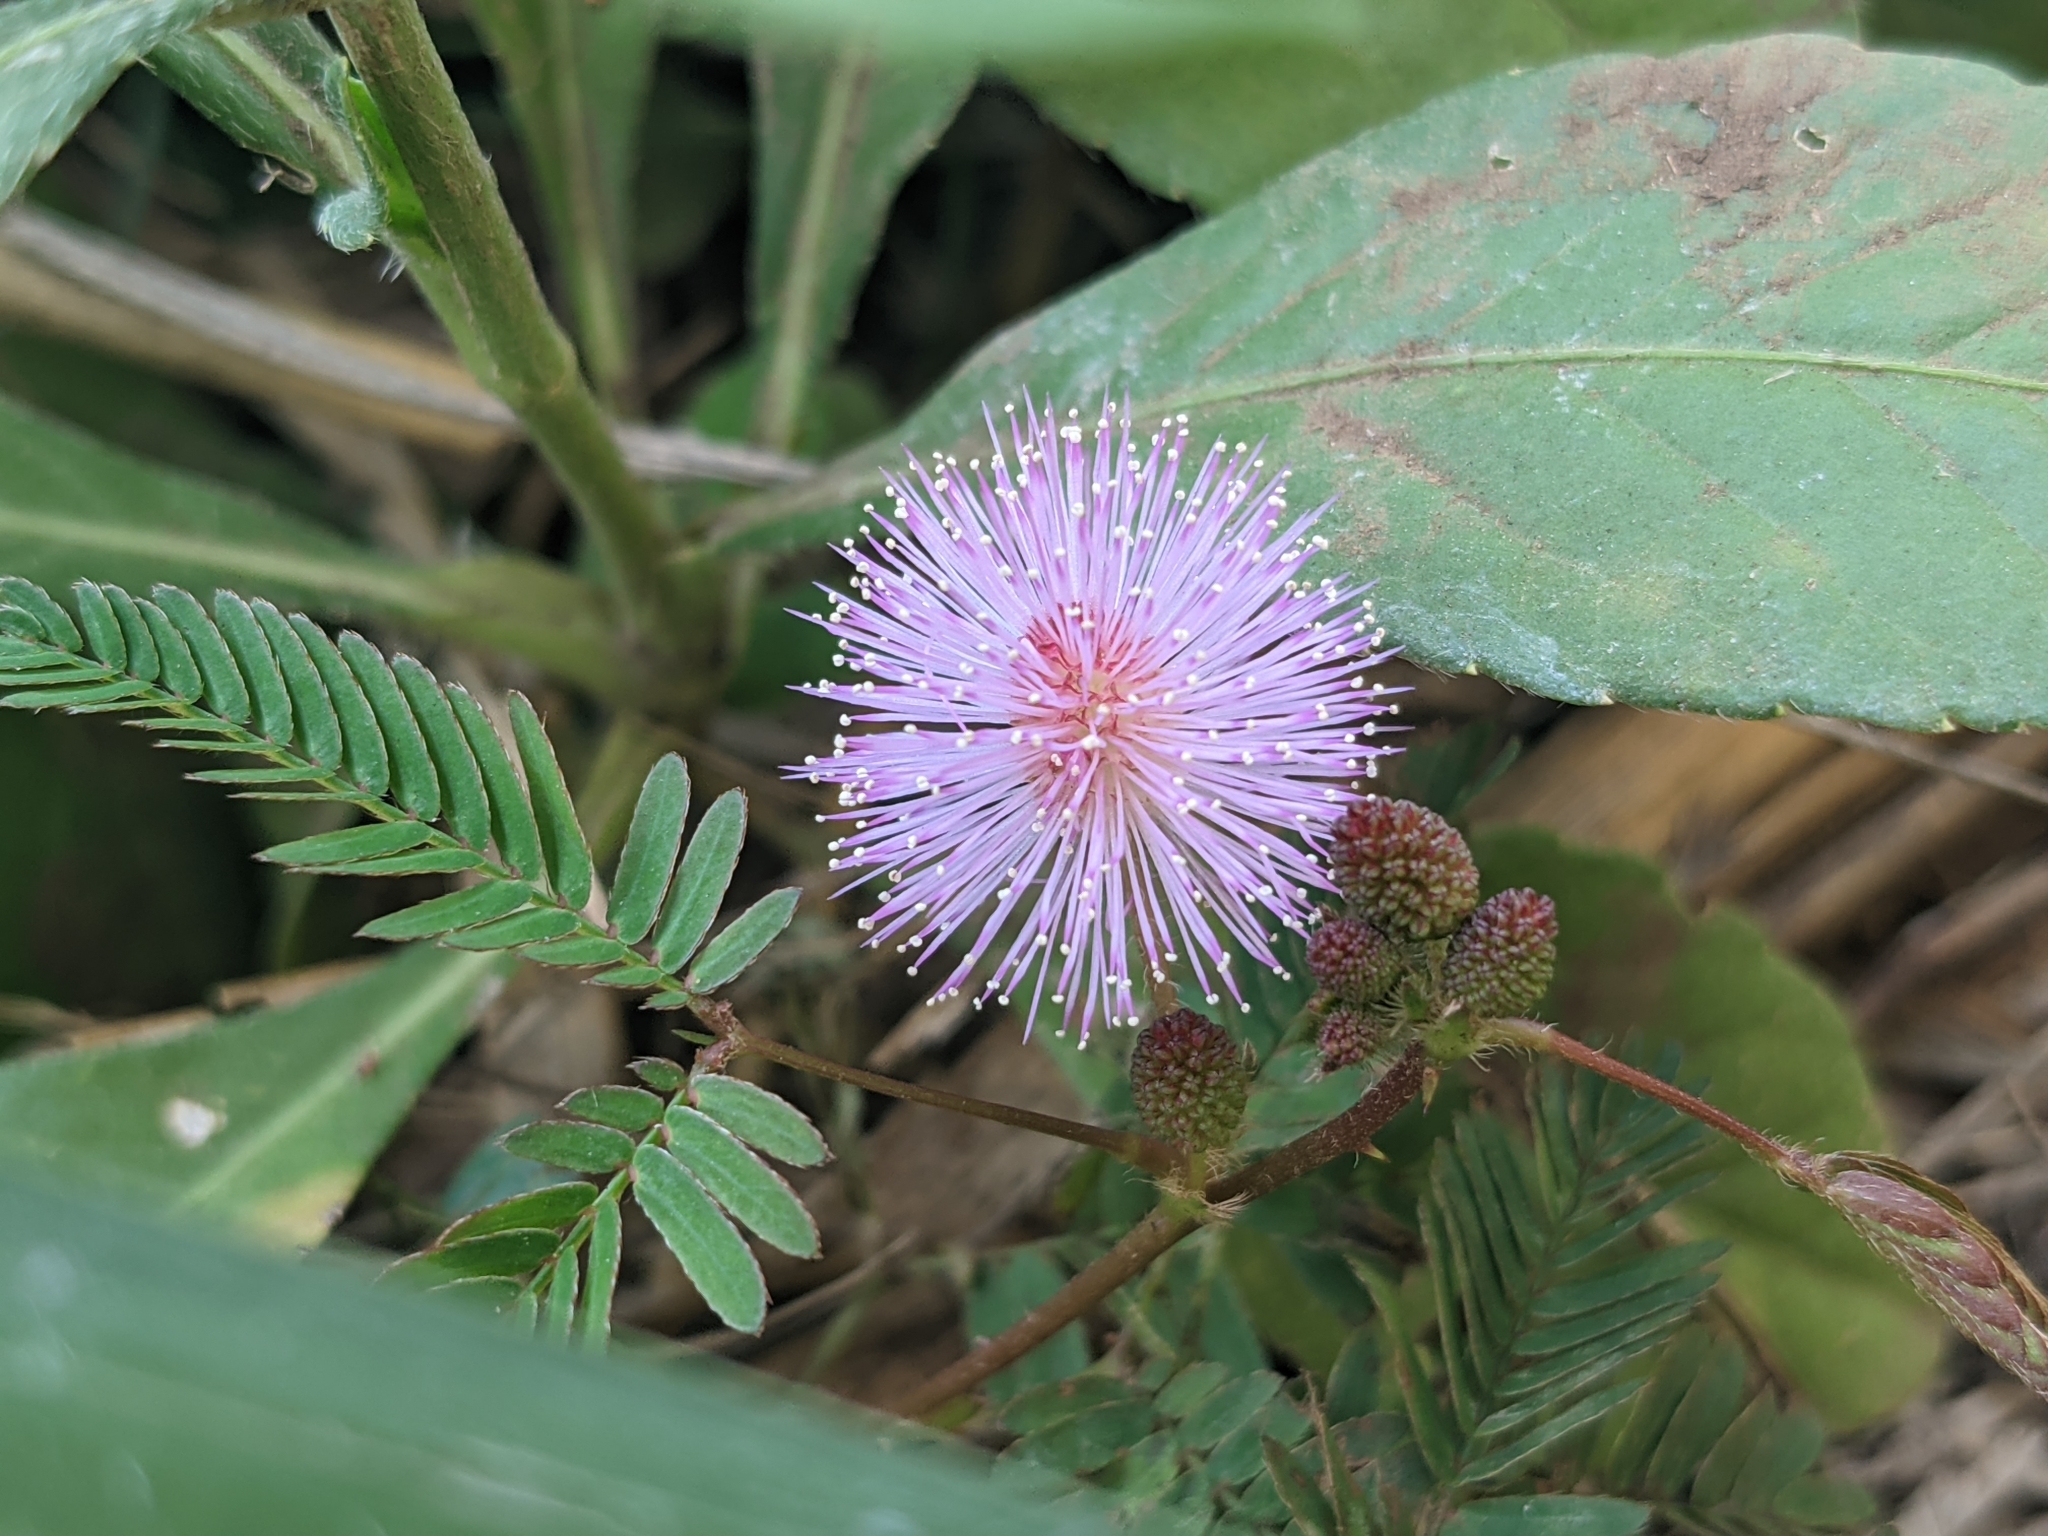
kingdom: Plantae
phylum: Tracheophyta
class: Magnoliopsida
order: Fabales
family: Fabaceae
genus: Mimosa
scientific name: Mimosa pudica
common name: Sensitive plant
